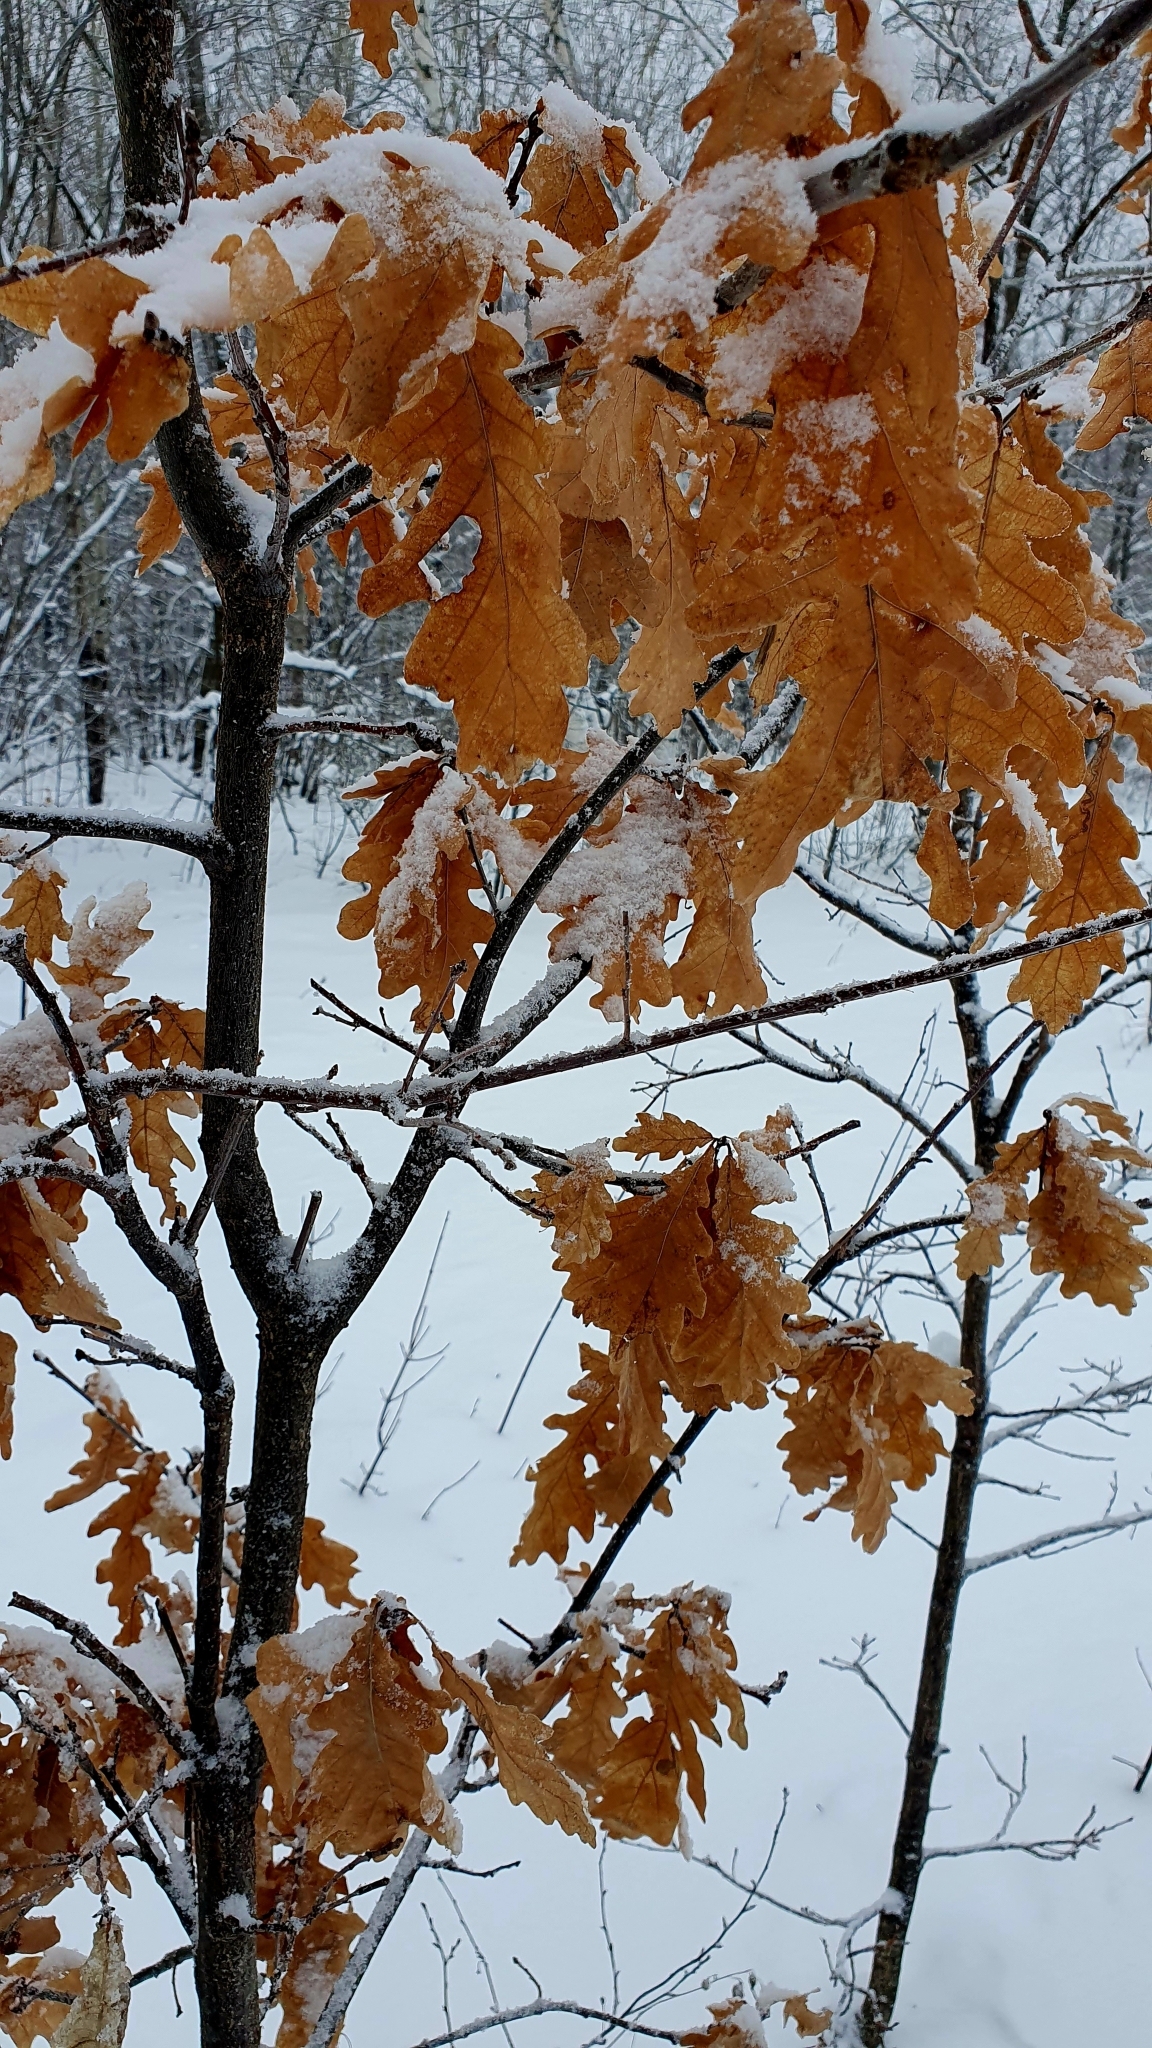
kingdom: Plantae
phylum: Tracheophyta
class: Magnoliopsida
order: Fagales
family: Fagaceae
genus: Quercus
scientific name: Quercus robur
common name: Pedunculate oak
